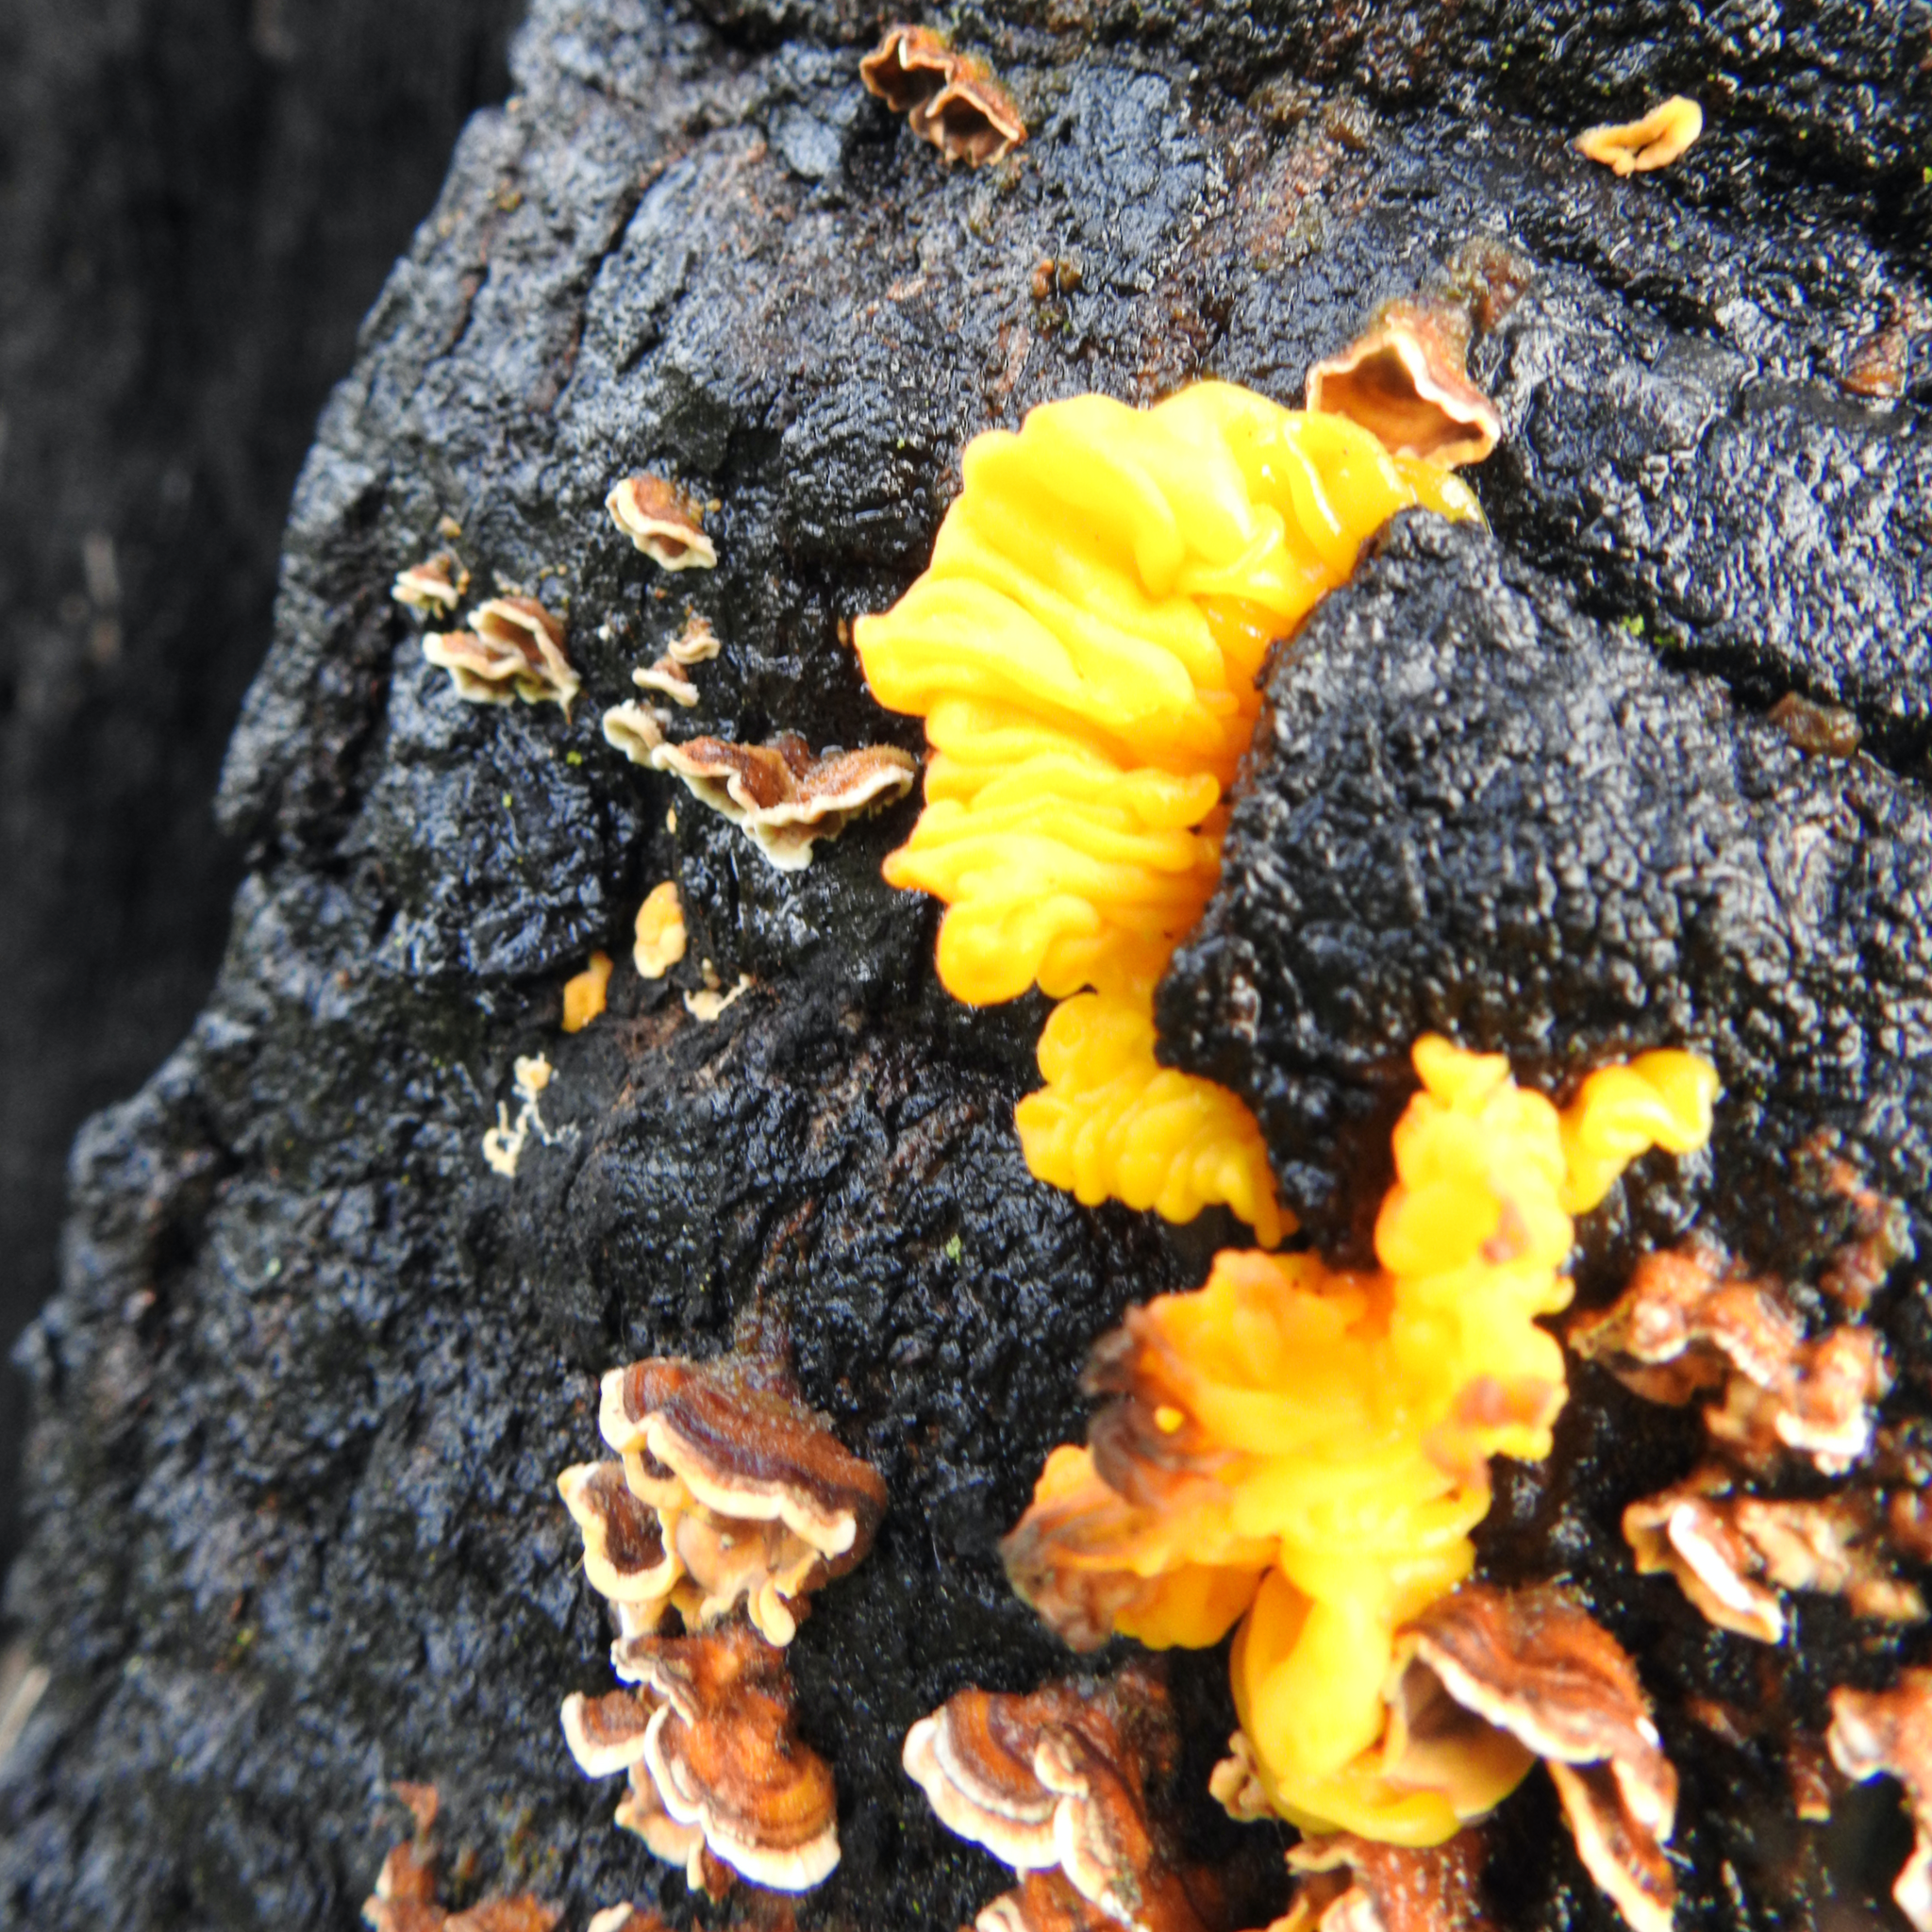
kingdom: Fungi
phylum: Basidiomycota
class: Tremellomycetes
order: Tremellales
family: Naemateliaceae
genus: Naematelia
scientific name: Naematelia aurantia
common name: Golden ear
